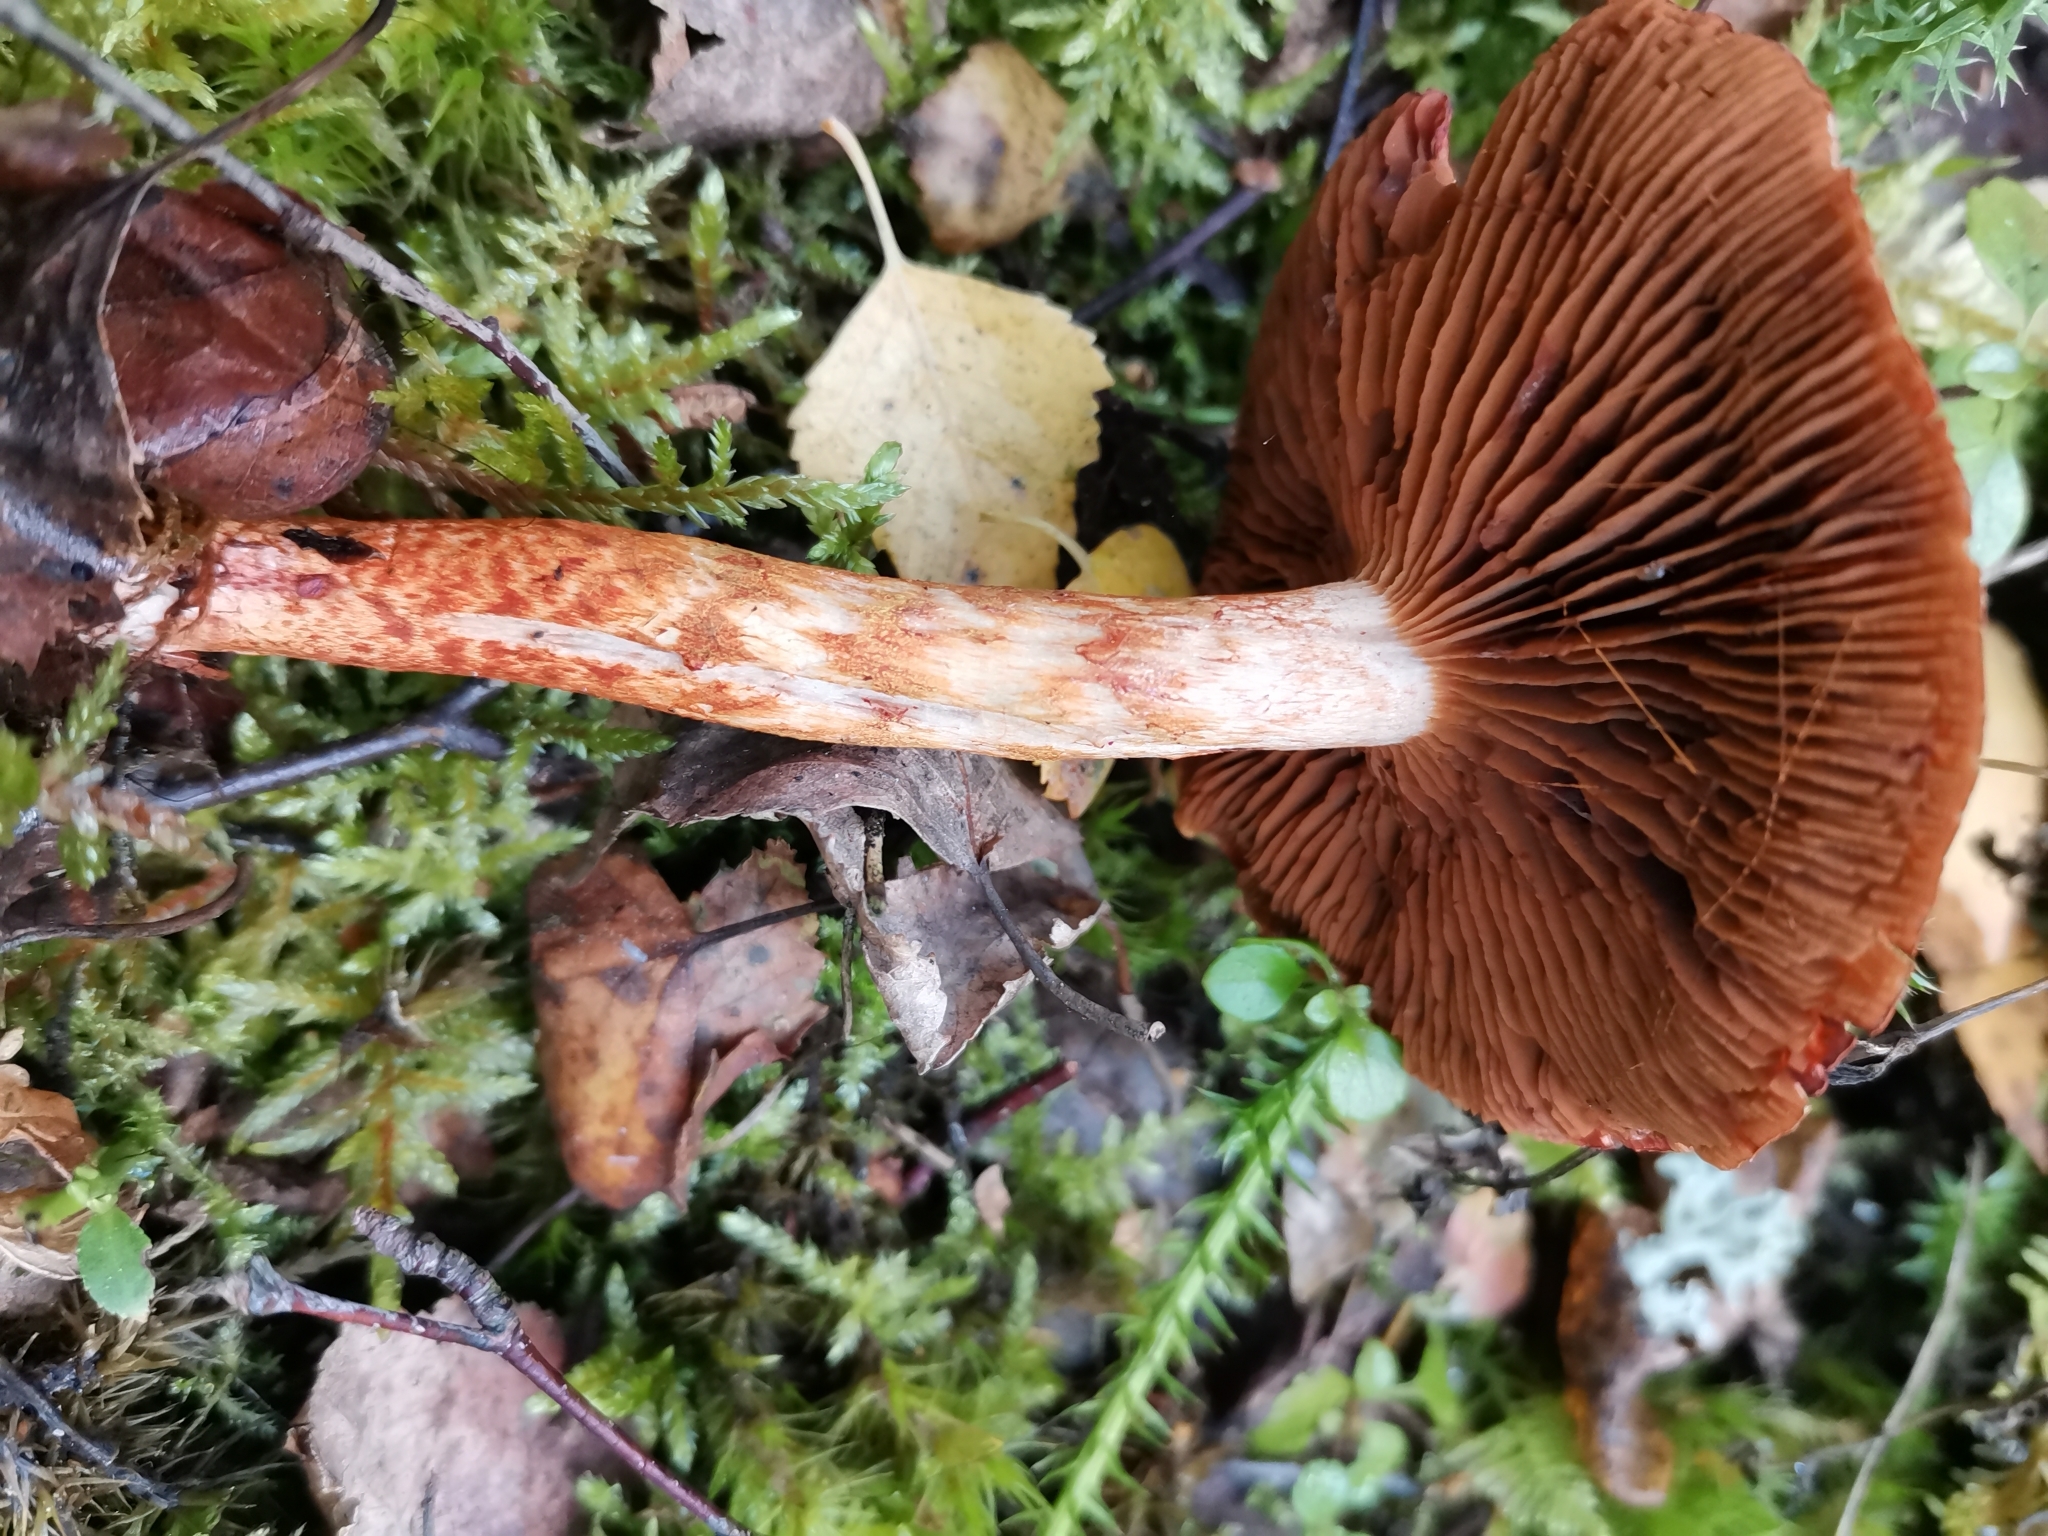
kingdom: Fungi
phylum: Basidiomycota
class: Agaricomycetes
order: Agaricales
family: Cortinariaceae
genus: Cortinarius
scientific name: Cortinarius bolaris
